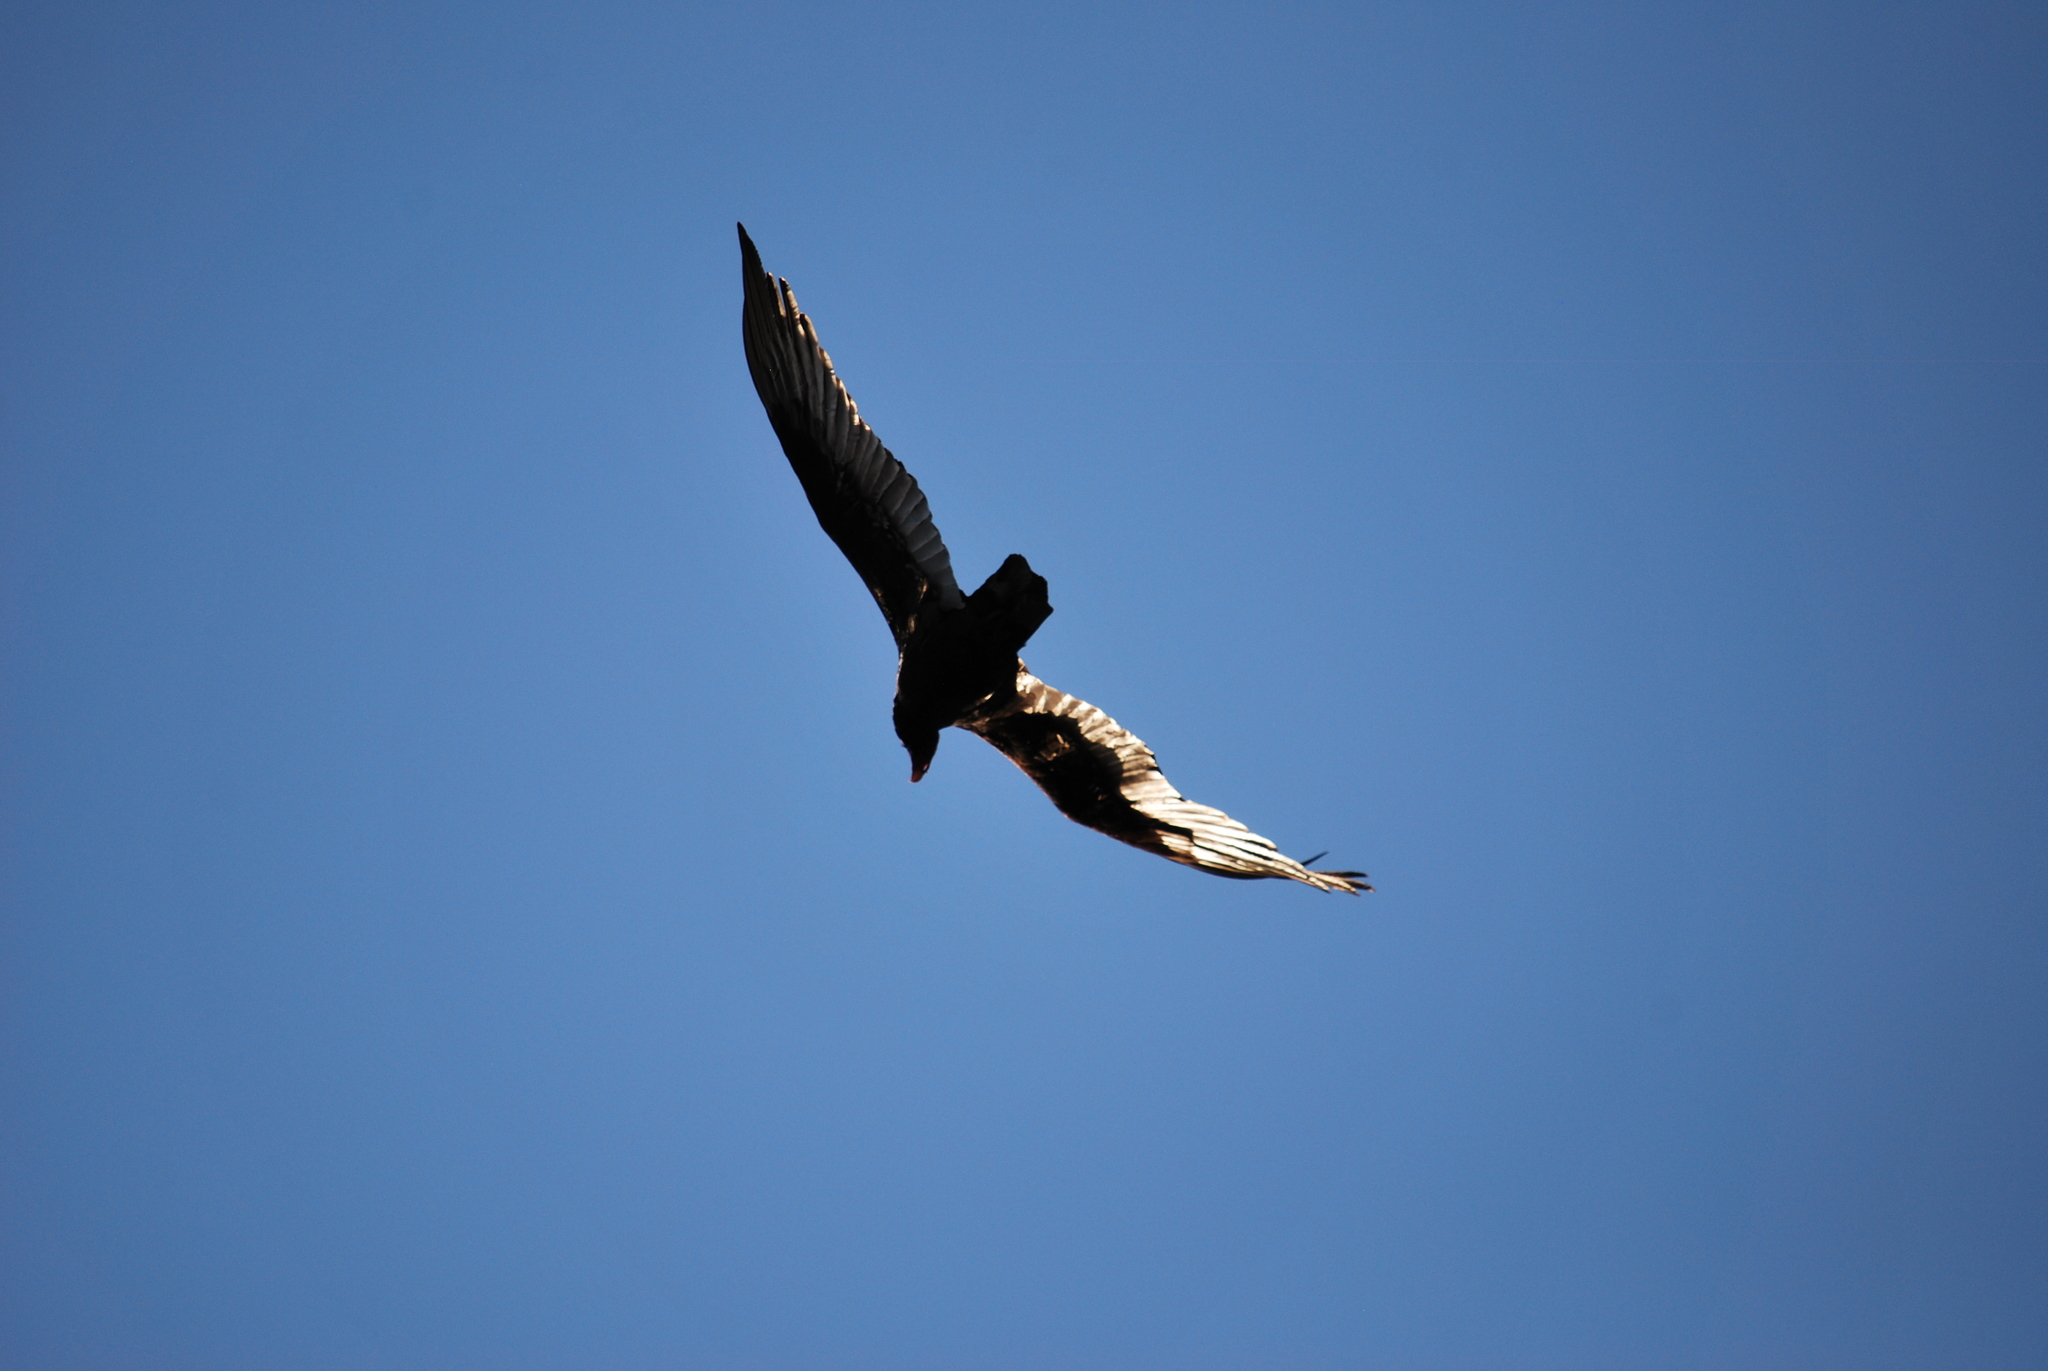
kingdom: Animalia
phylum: Chordata
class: Aves
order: Accipitriformes
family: Cathartidae
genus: Cathartes
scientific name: Cathartes aura
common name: Turkey vulture
